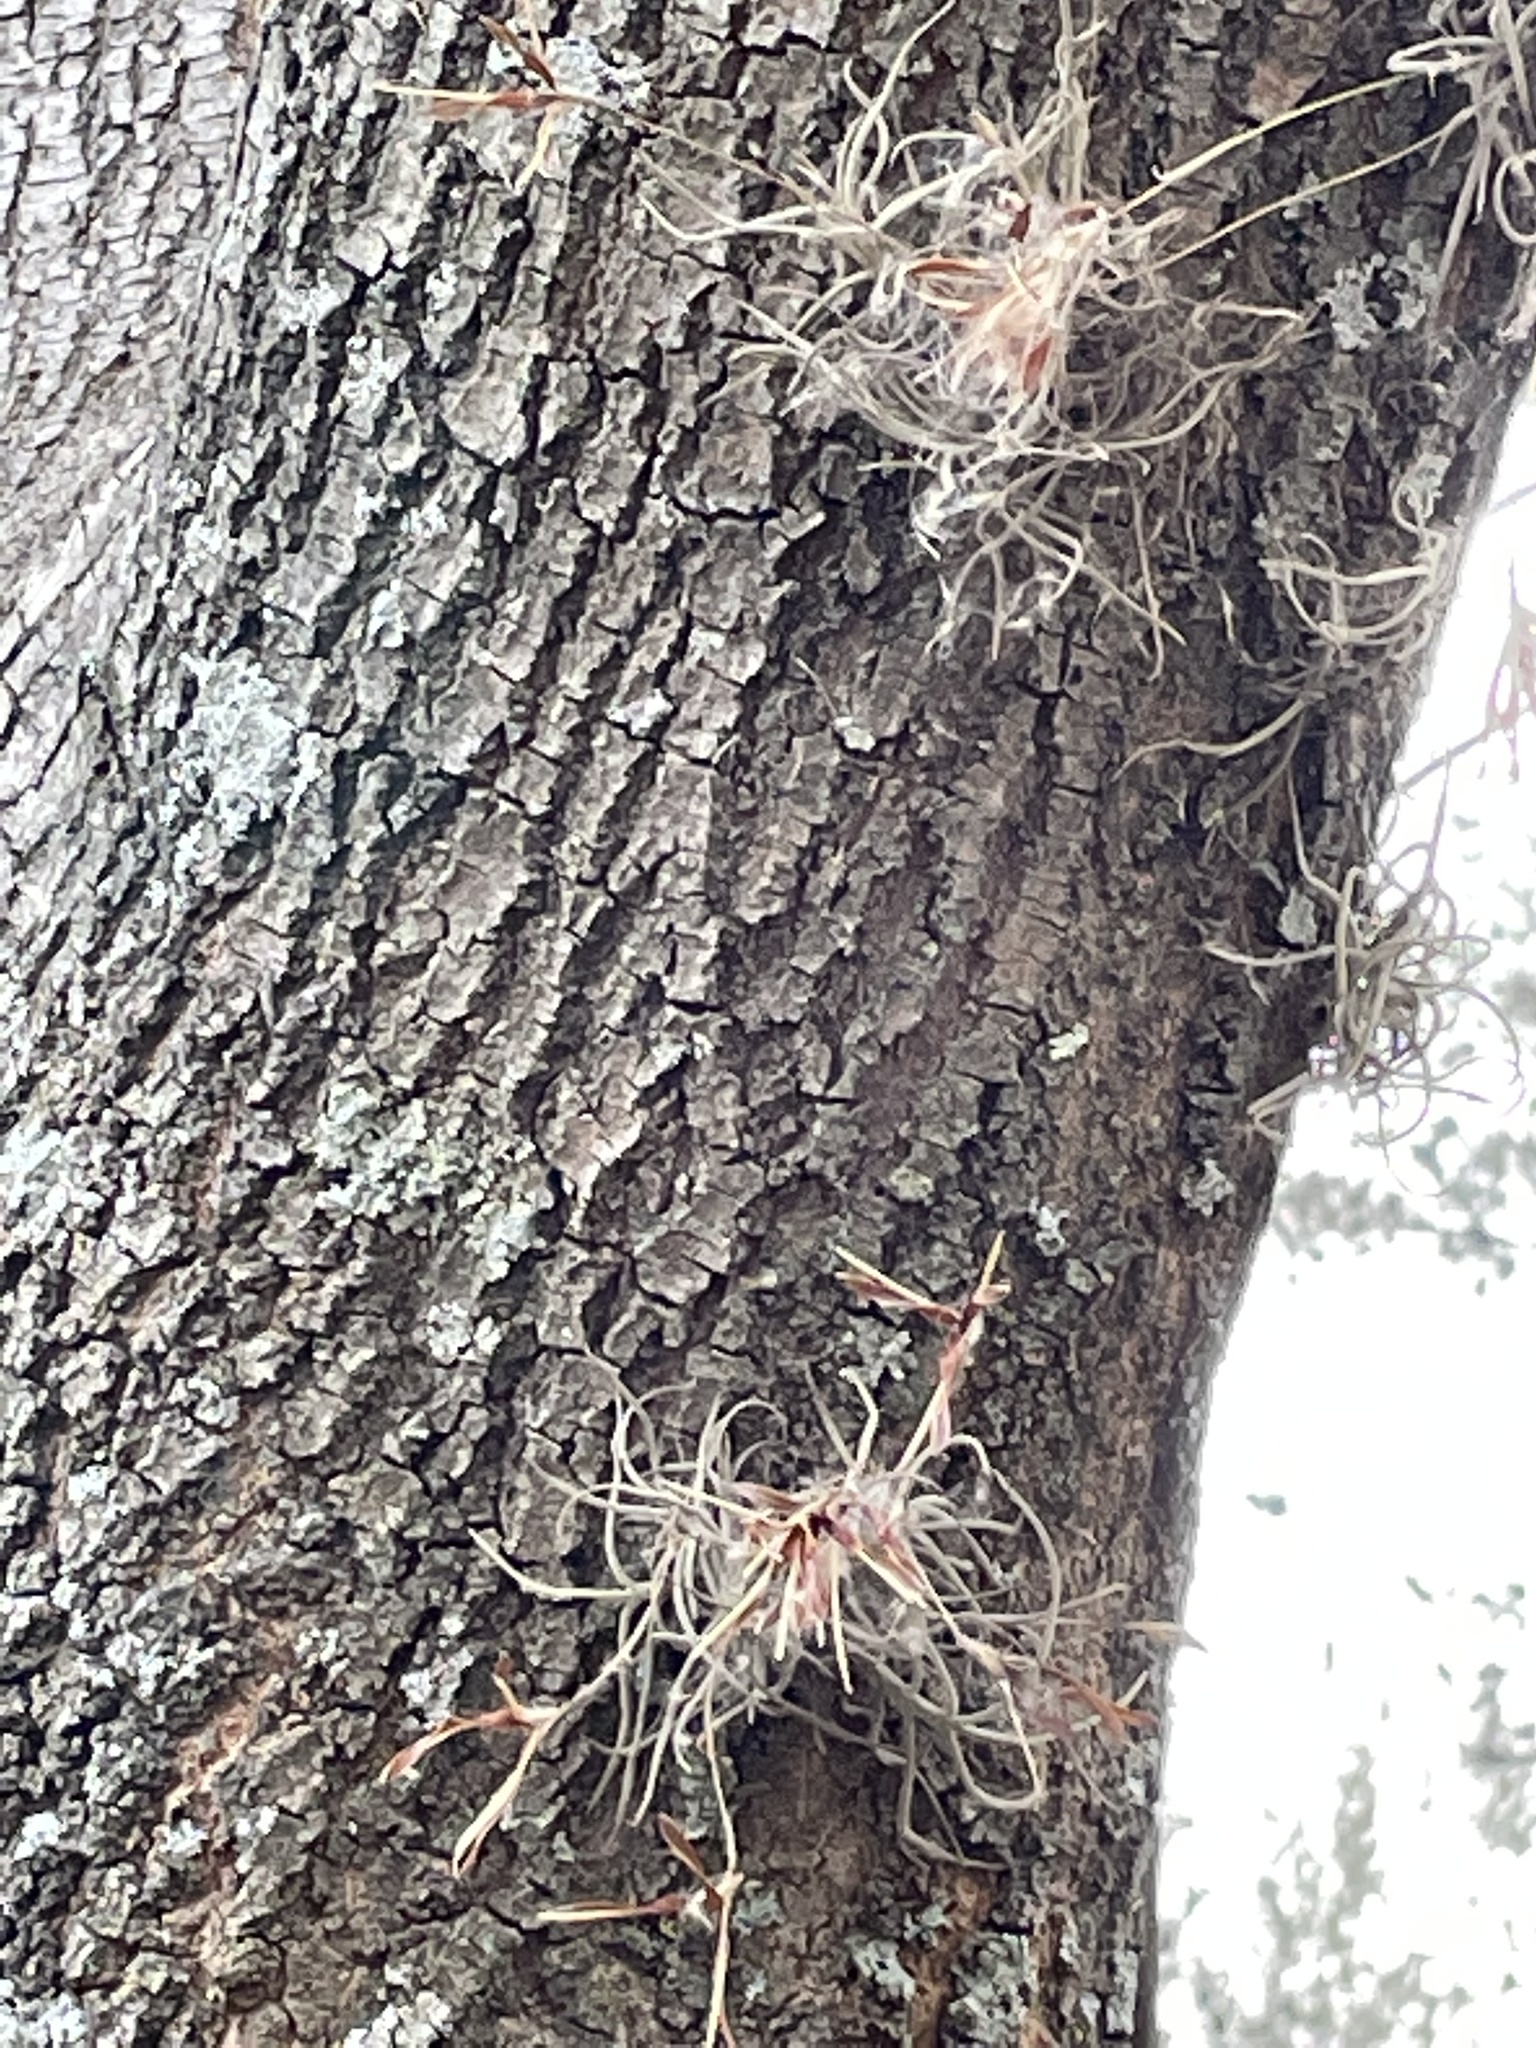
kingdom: Plantae
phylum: Tracheophyta
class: Liliopsida
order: Poales
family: Bromeliaceae
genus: Tillandsia
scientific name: Tillandsia recurvata
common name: Small ballmoss
